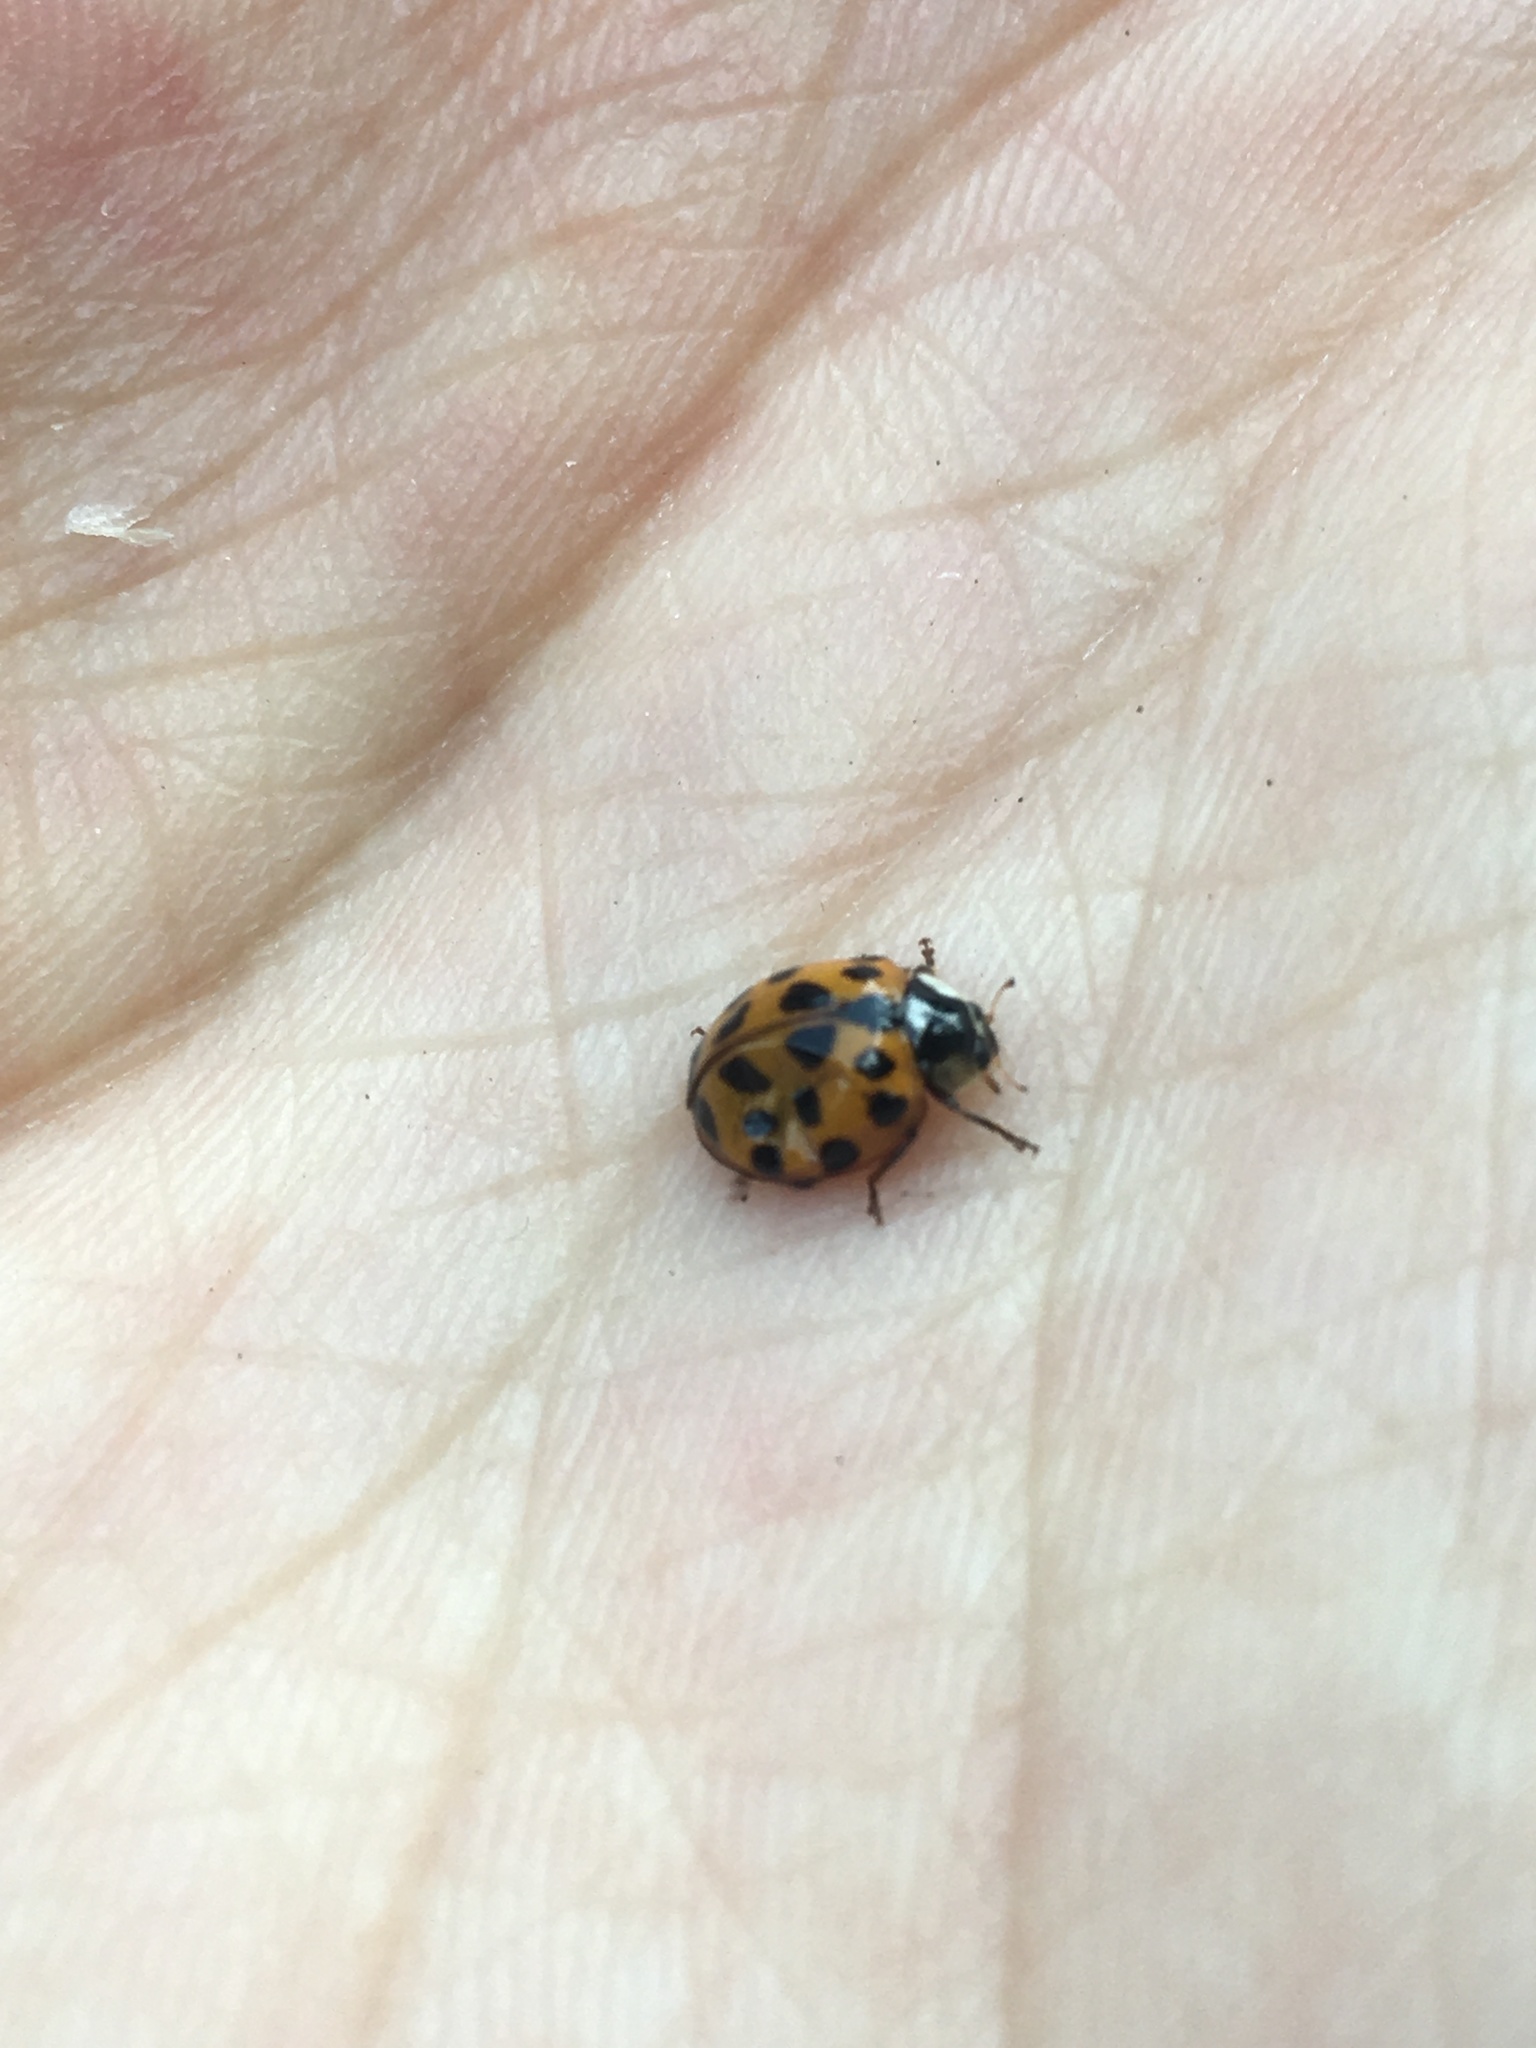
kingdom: Animalia
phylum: Arthropoda
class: Insecta
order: Coleoptera
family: Coccinellidae
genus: Harmonia
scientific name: Harmonia axyridis
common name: Harlequin ladybird
